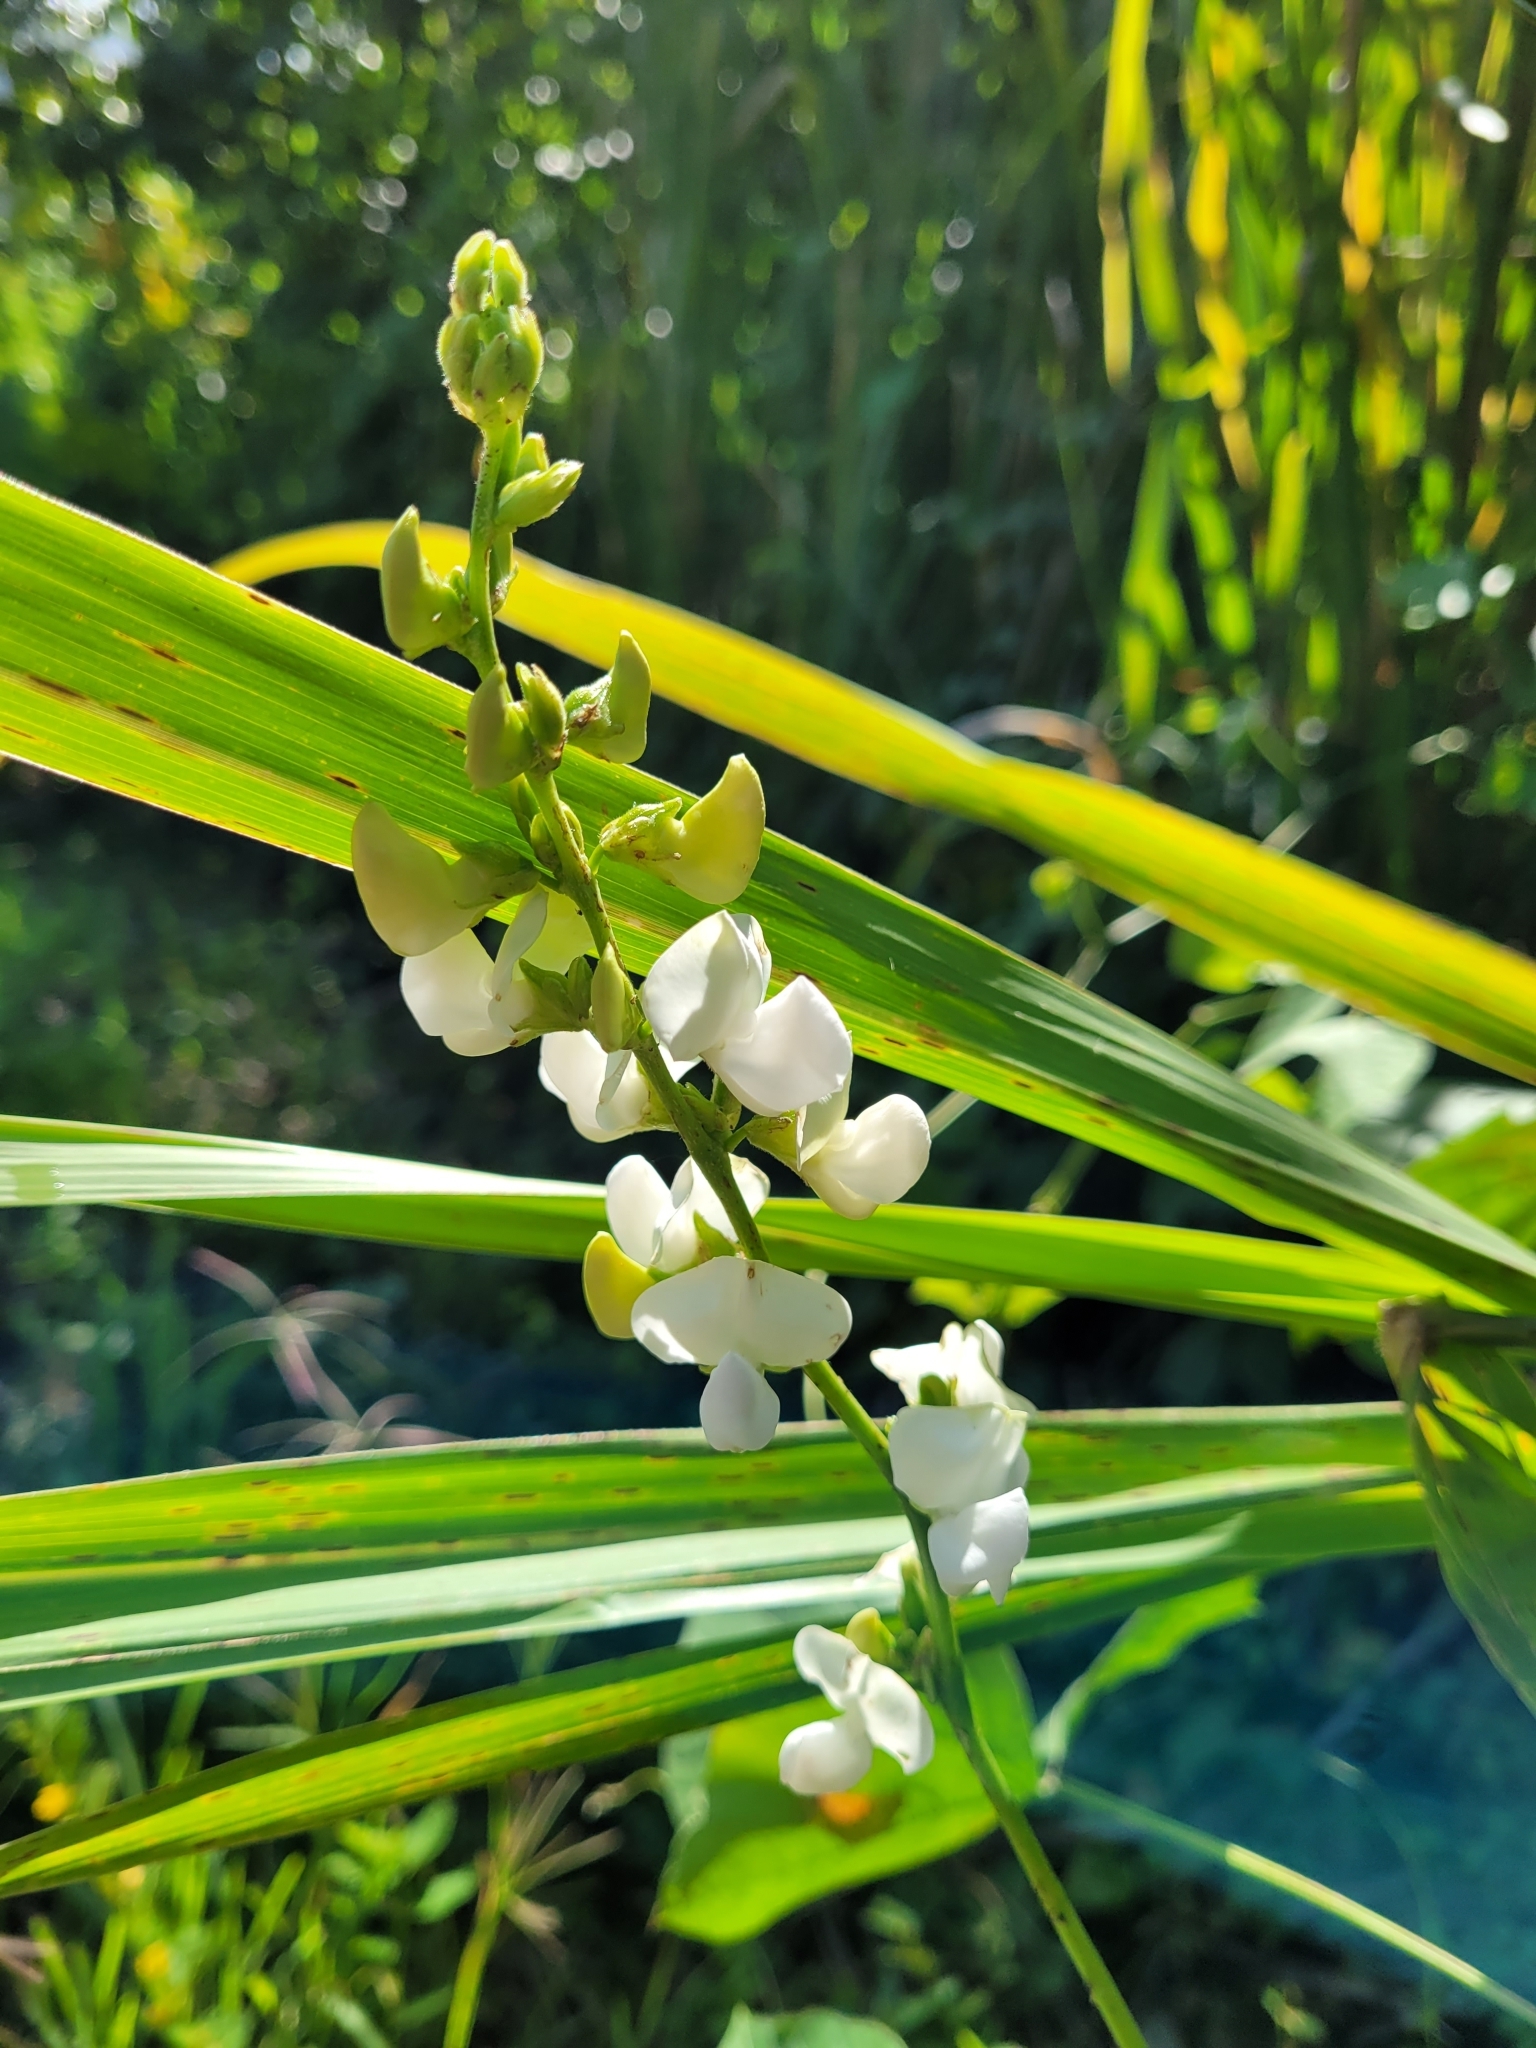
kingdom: Plantae
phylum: Tracheophyta
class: Magnoliopsida
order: Fabales
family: Fabaceae
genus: Lablab
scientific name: Lablab purpureus
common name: Lablab-bean
